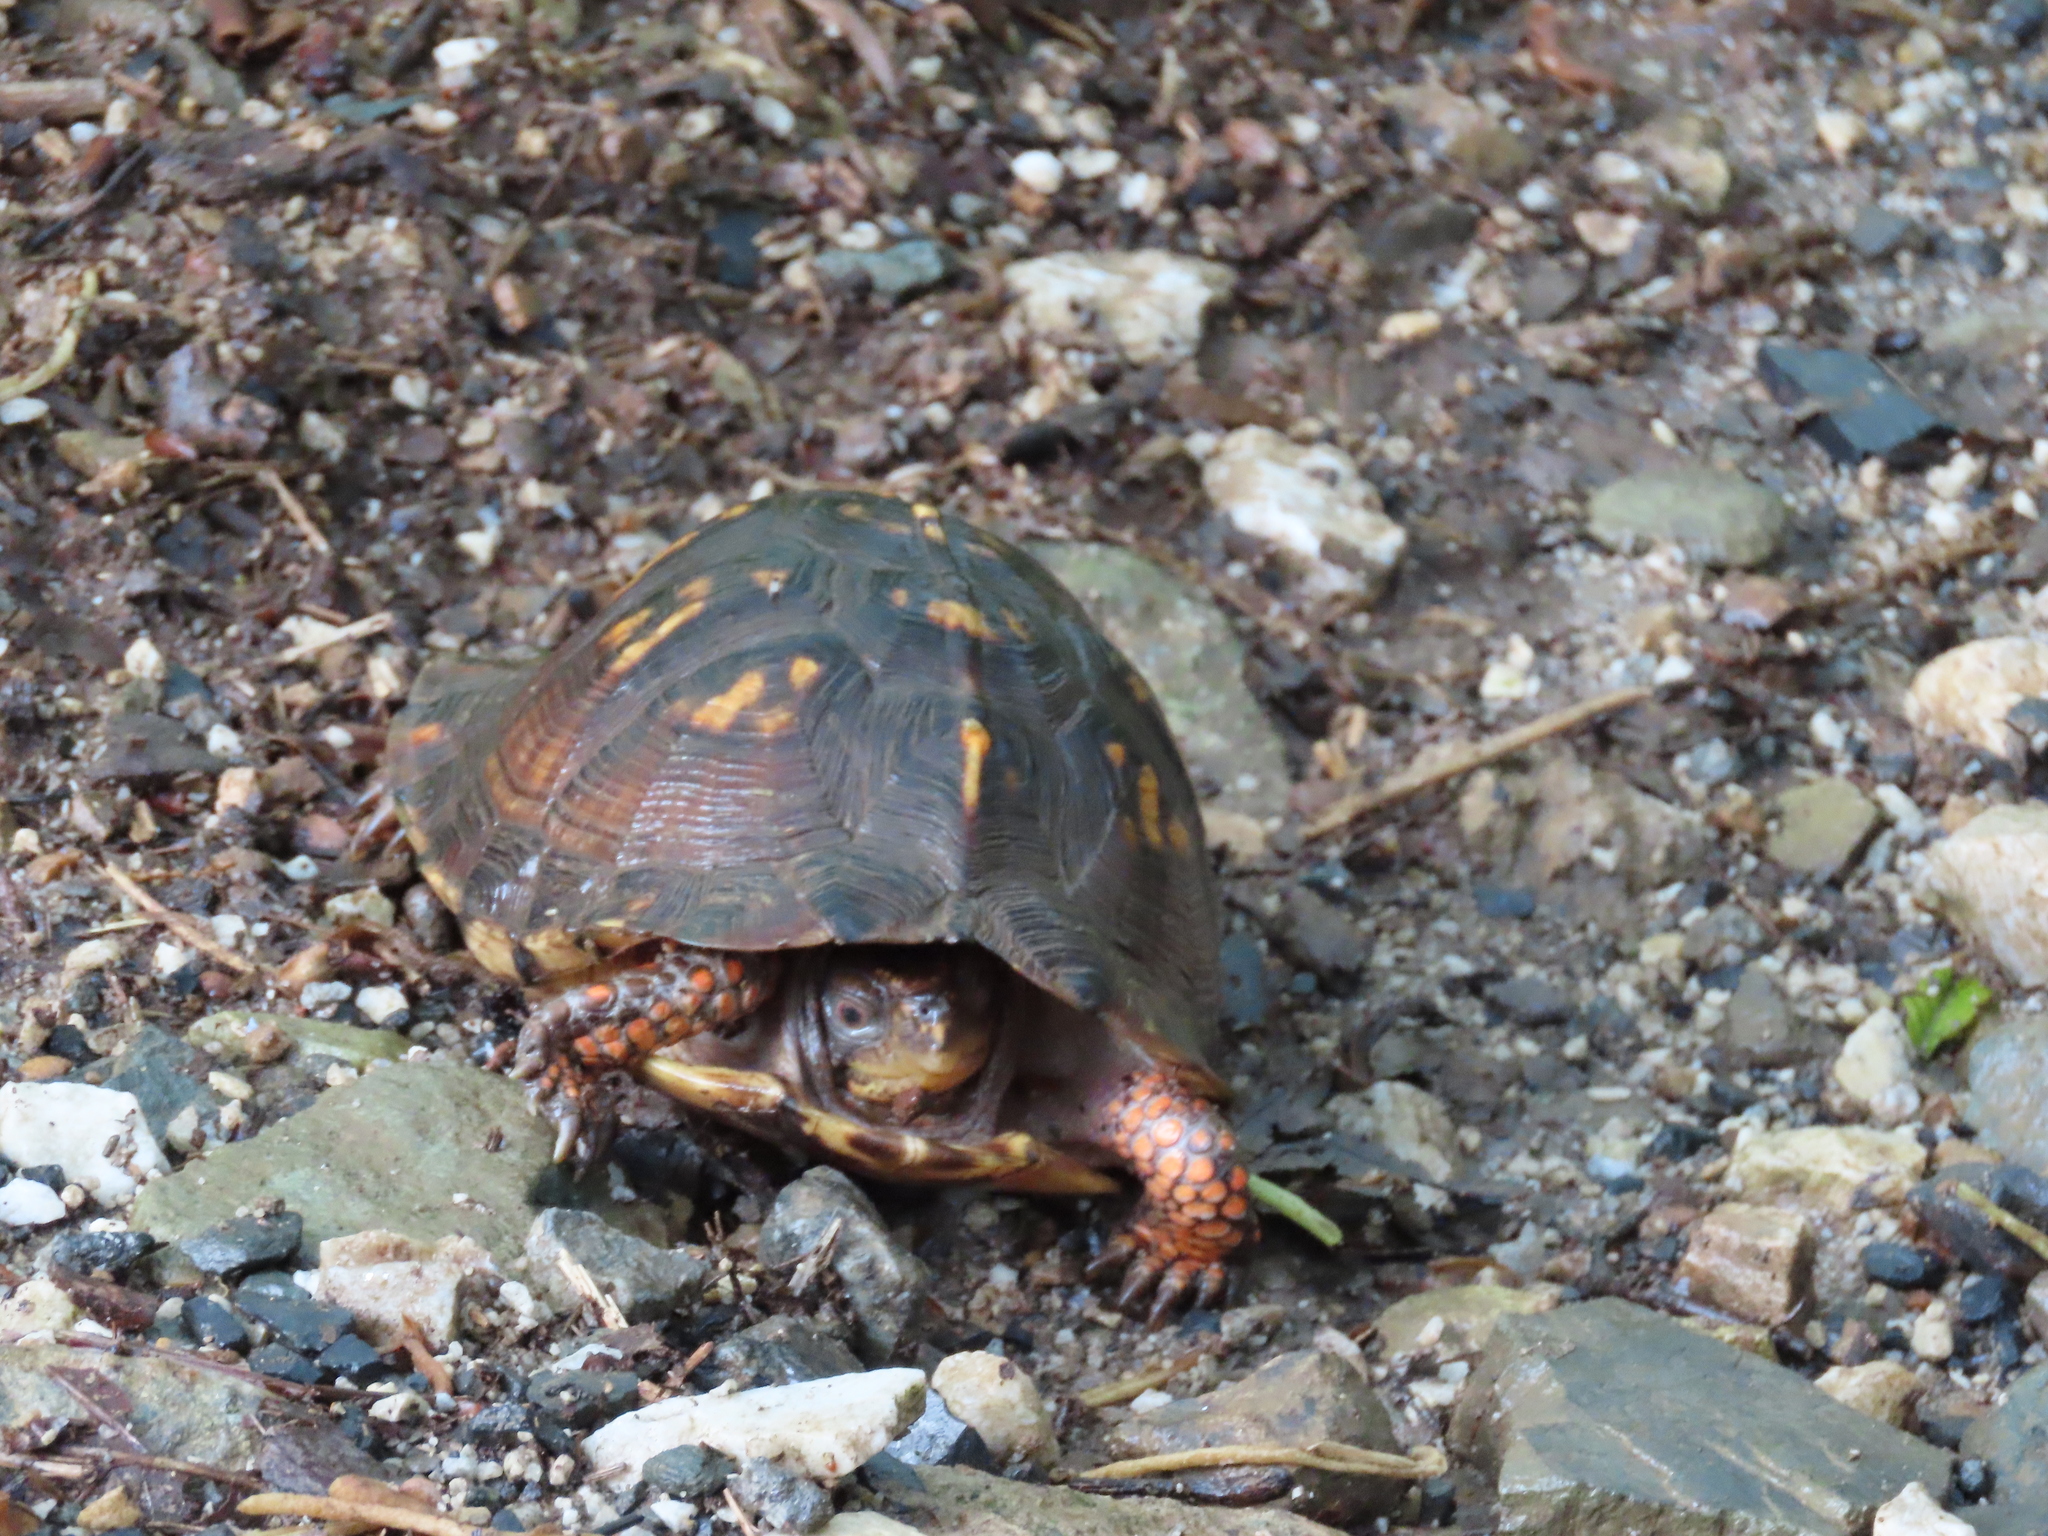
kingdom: Animalia
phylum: Chordata
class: Testudines
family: Emydidae
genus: Terrapene
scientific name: Terrapene carolina
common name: Common box turtle
